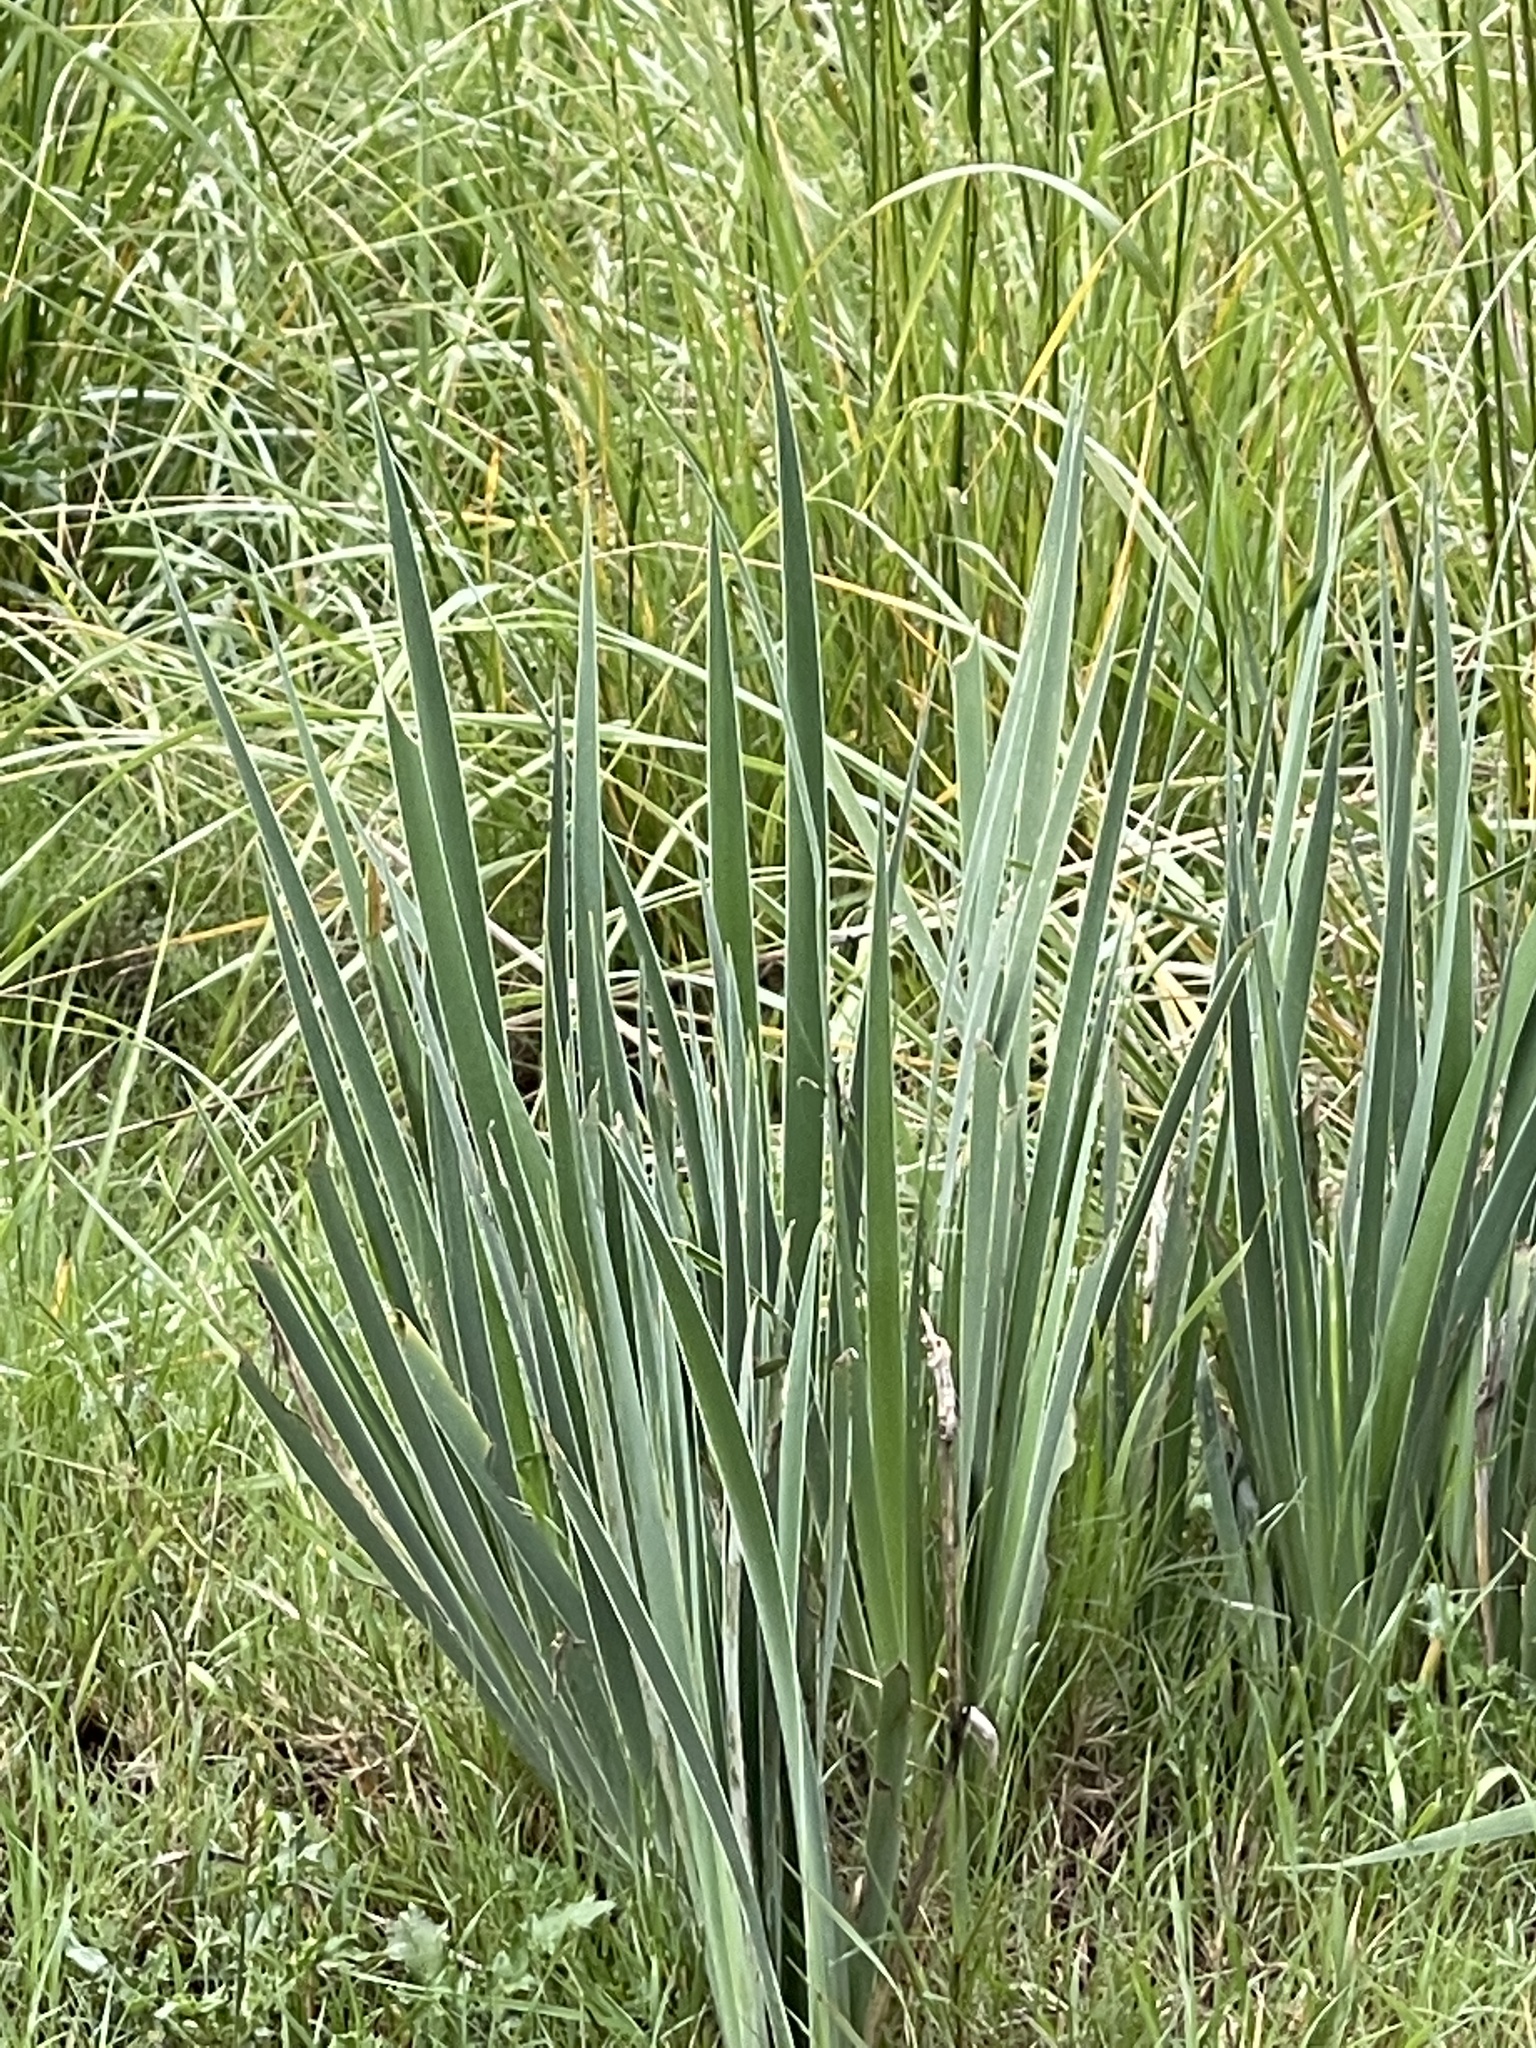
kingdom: Plantae
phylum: Tracheophyta
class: Liliopsida
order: Asparagales
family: Iridaceae
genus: Iris
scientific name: Iris missouriensis
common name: Rocky mountain iris
